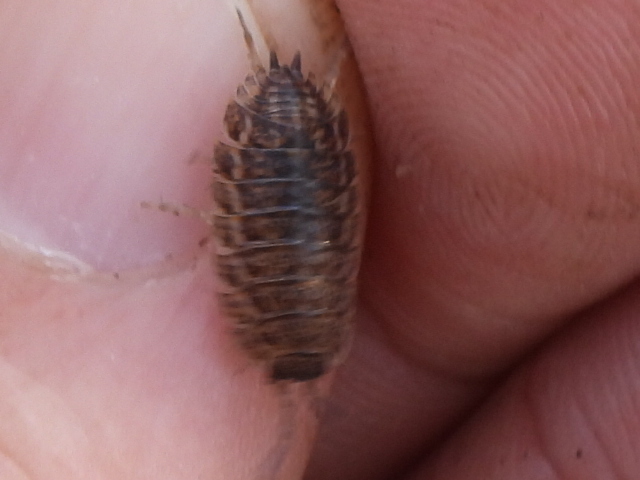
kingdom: Animalia
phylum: Arthropoda
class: Malacostraca
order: Isopoda
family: Trachelipodidae
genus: Trachelipus
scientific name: Trachelipus rathkii
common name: Isopod
